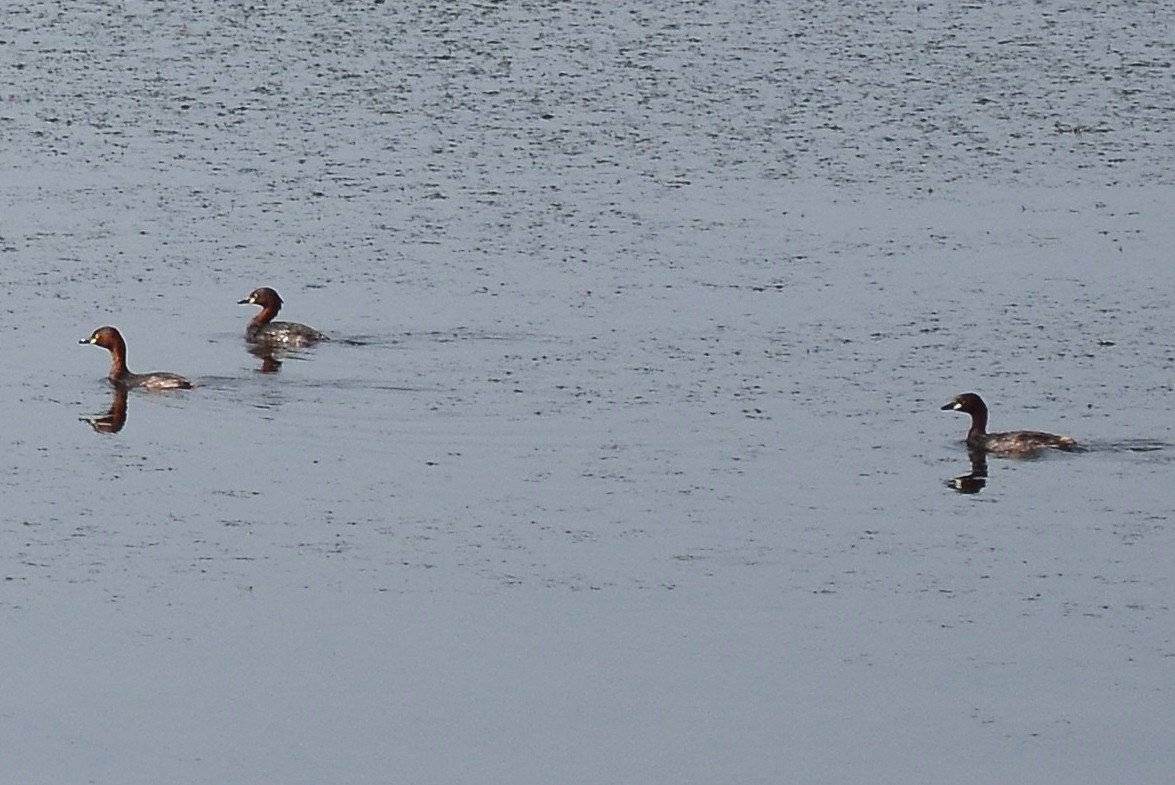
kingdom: Animalia
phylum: Chordata
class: Aves
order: Podicipediformes
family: Podicipedidae
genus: Tachybaptus
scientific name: Tachybaptus ruficollis
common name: Little grebe
